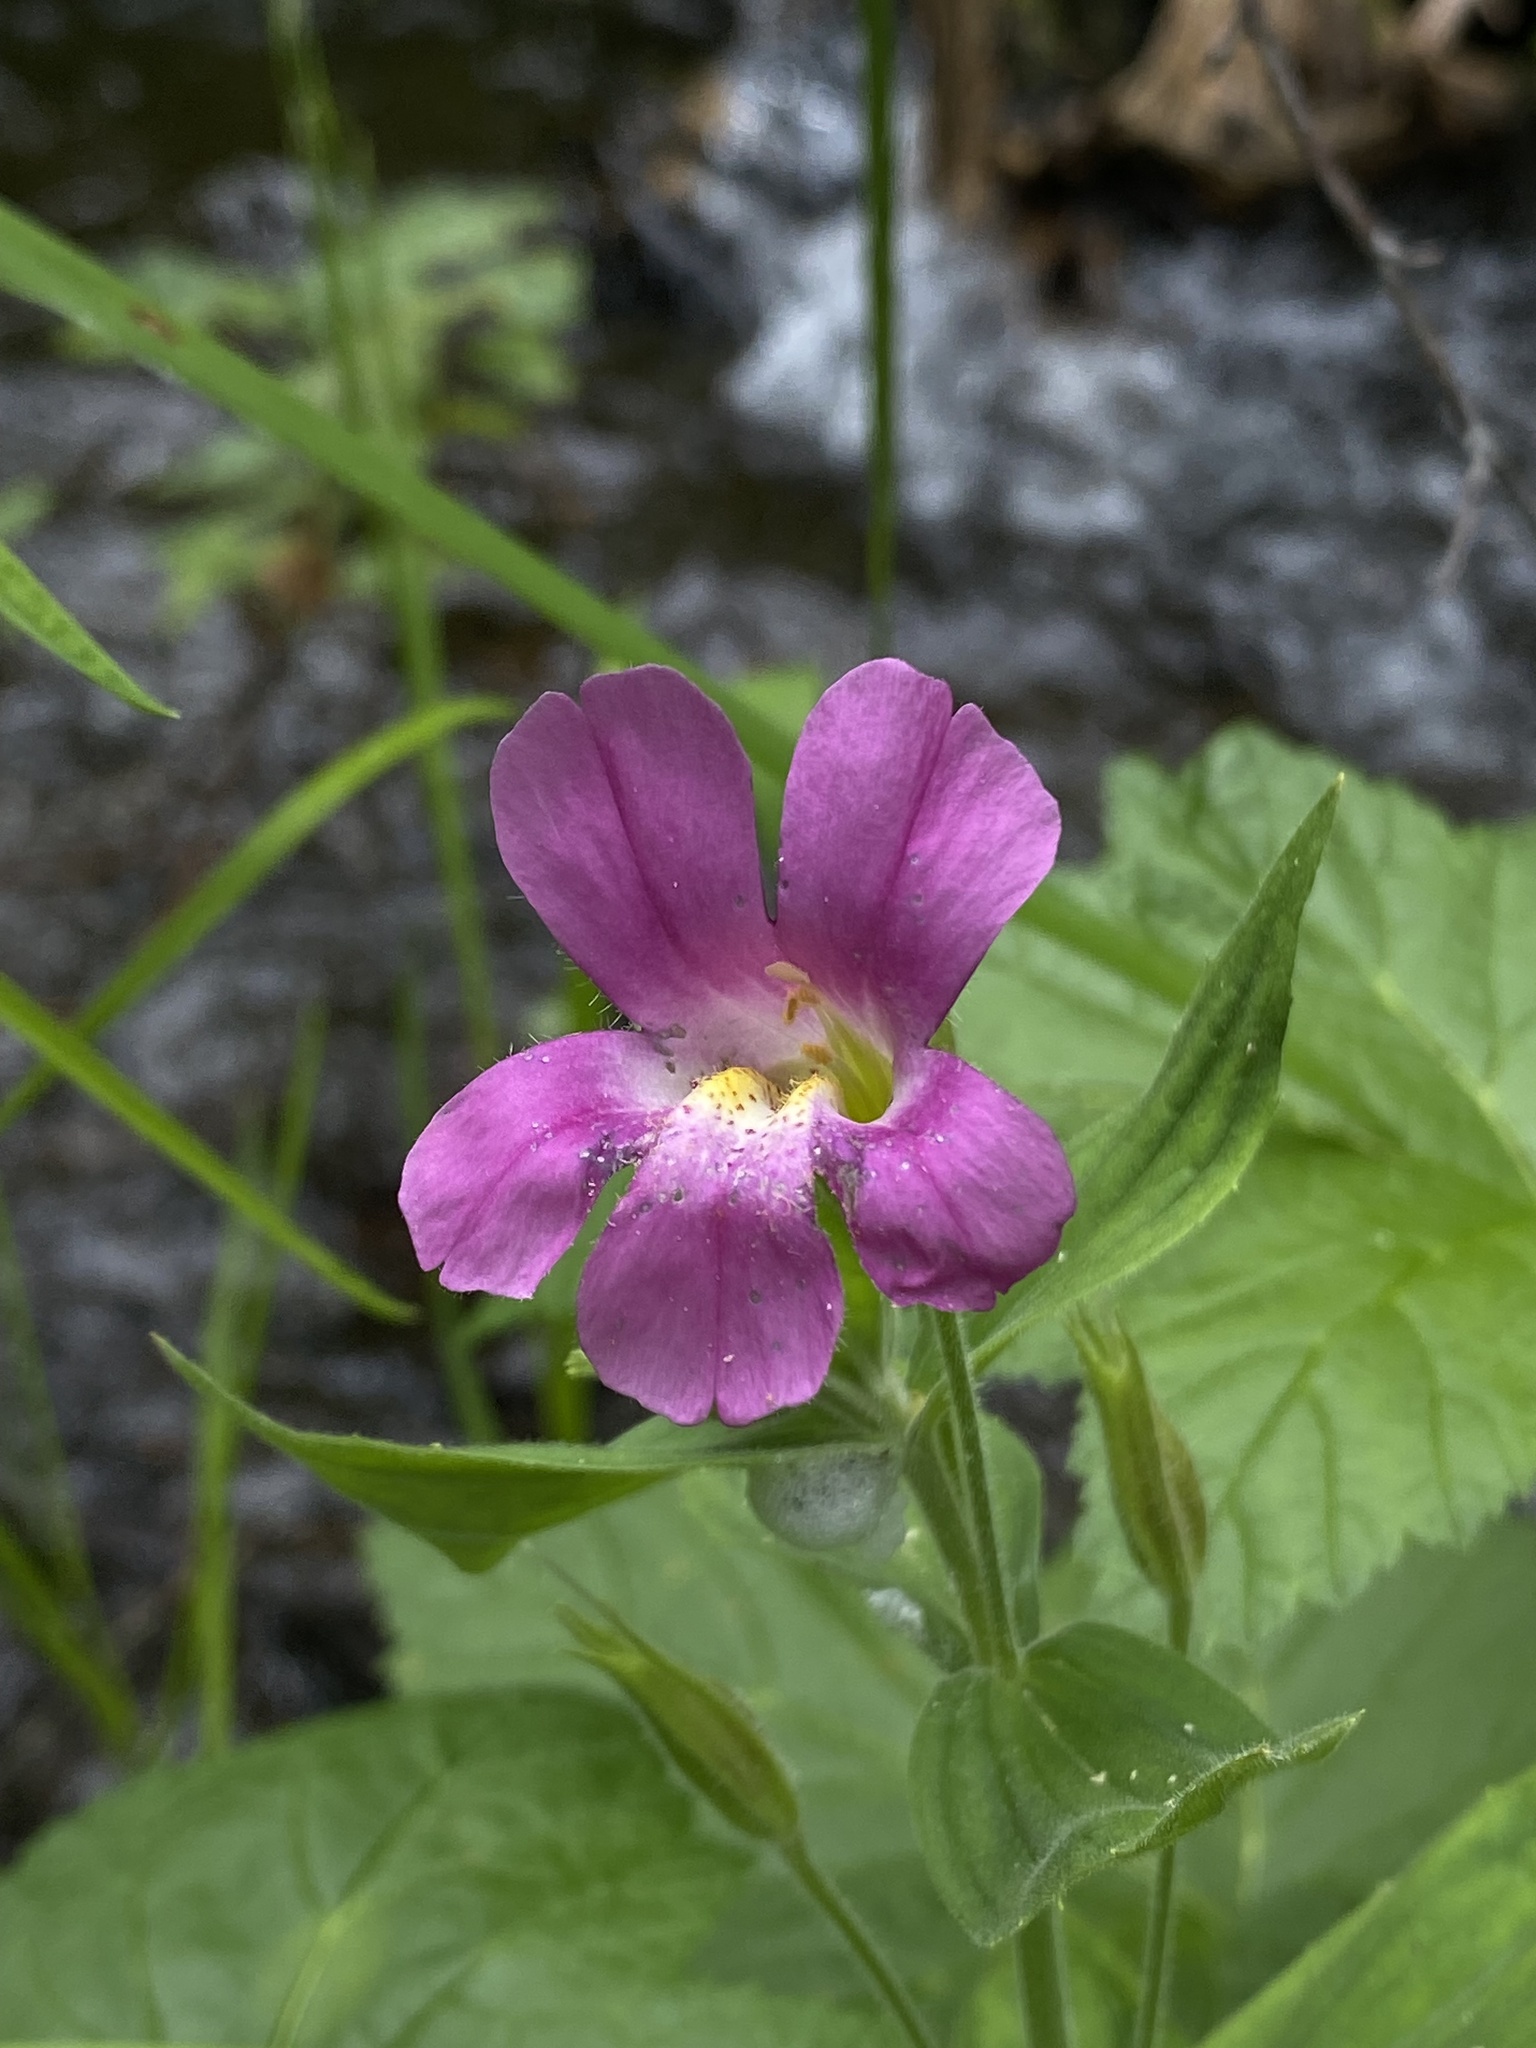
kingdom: Plantae
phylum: Tracheophyta
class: Magnoliopsida
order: Lamiales
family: Phrymaceae
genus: Erythranthe
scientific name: Erythranthe lewisii
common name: Lewis's monkey-flower
